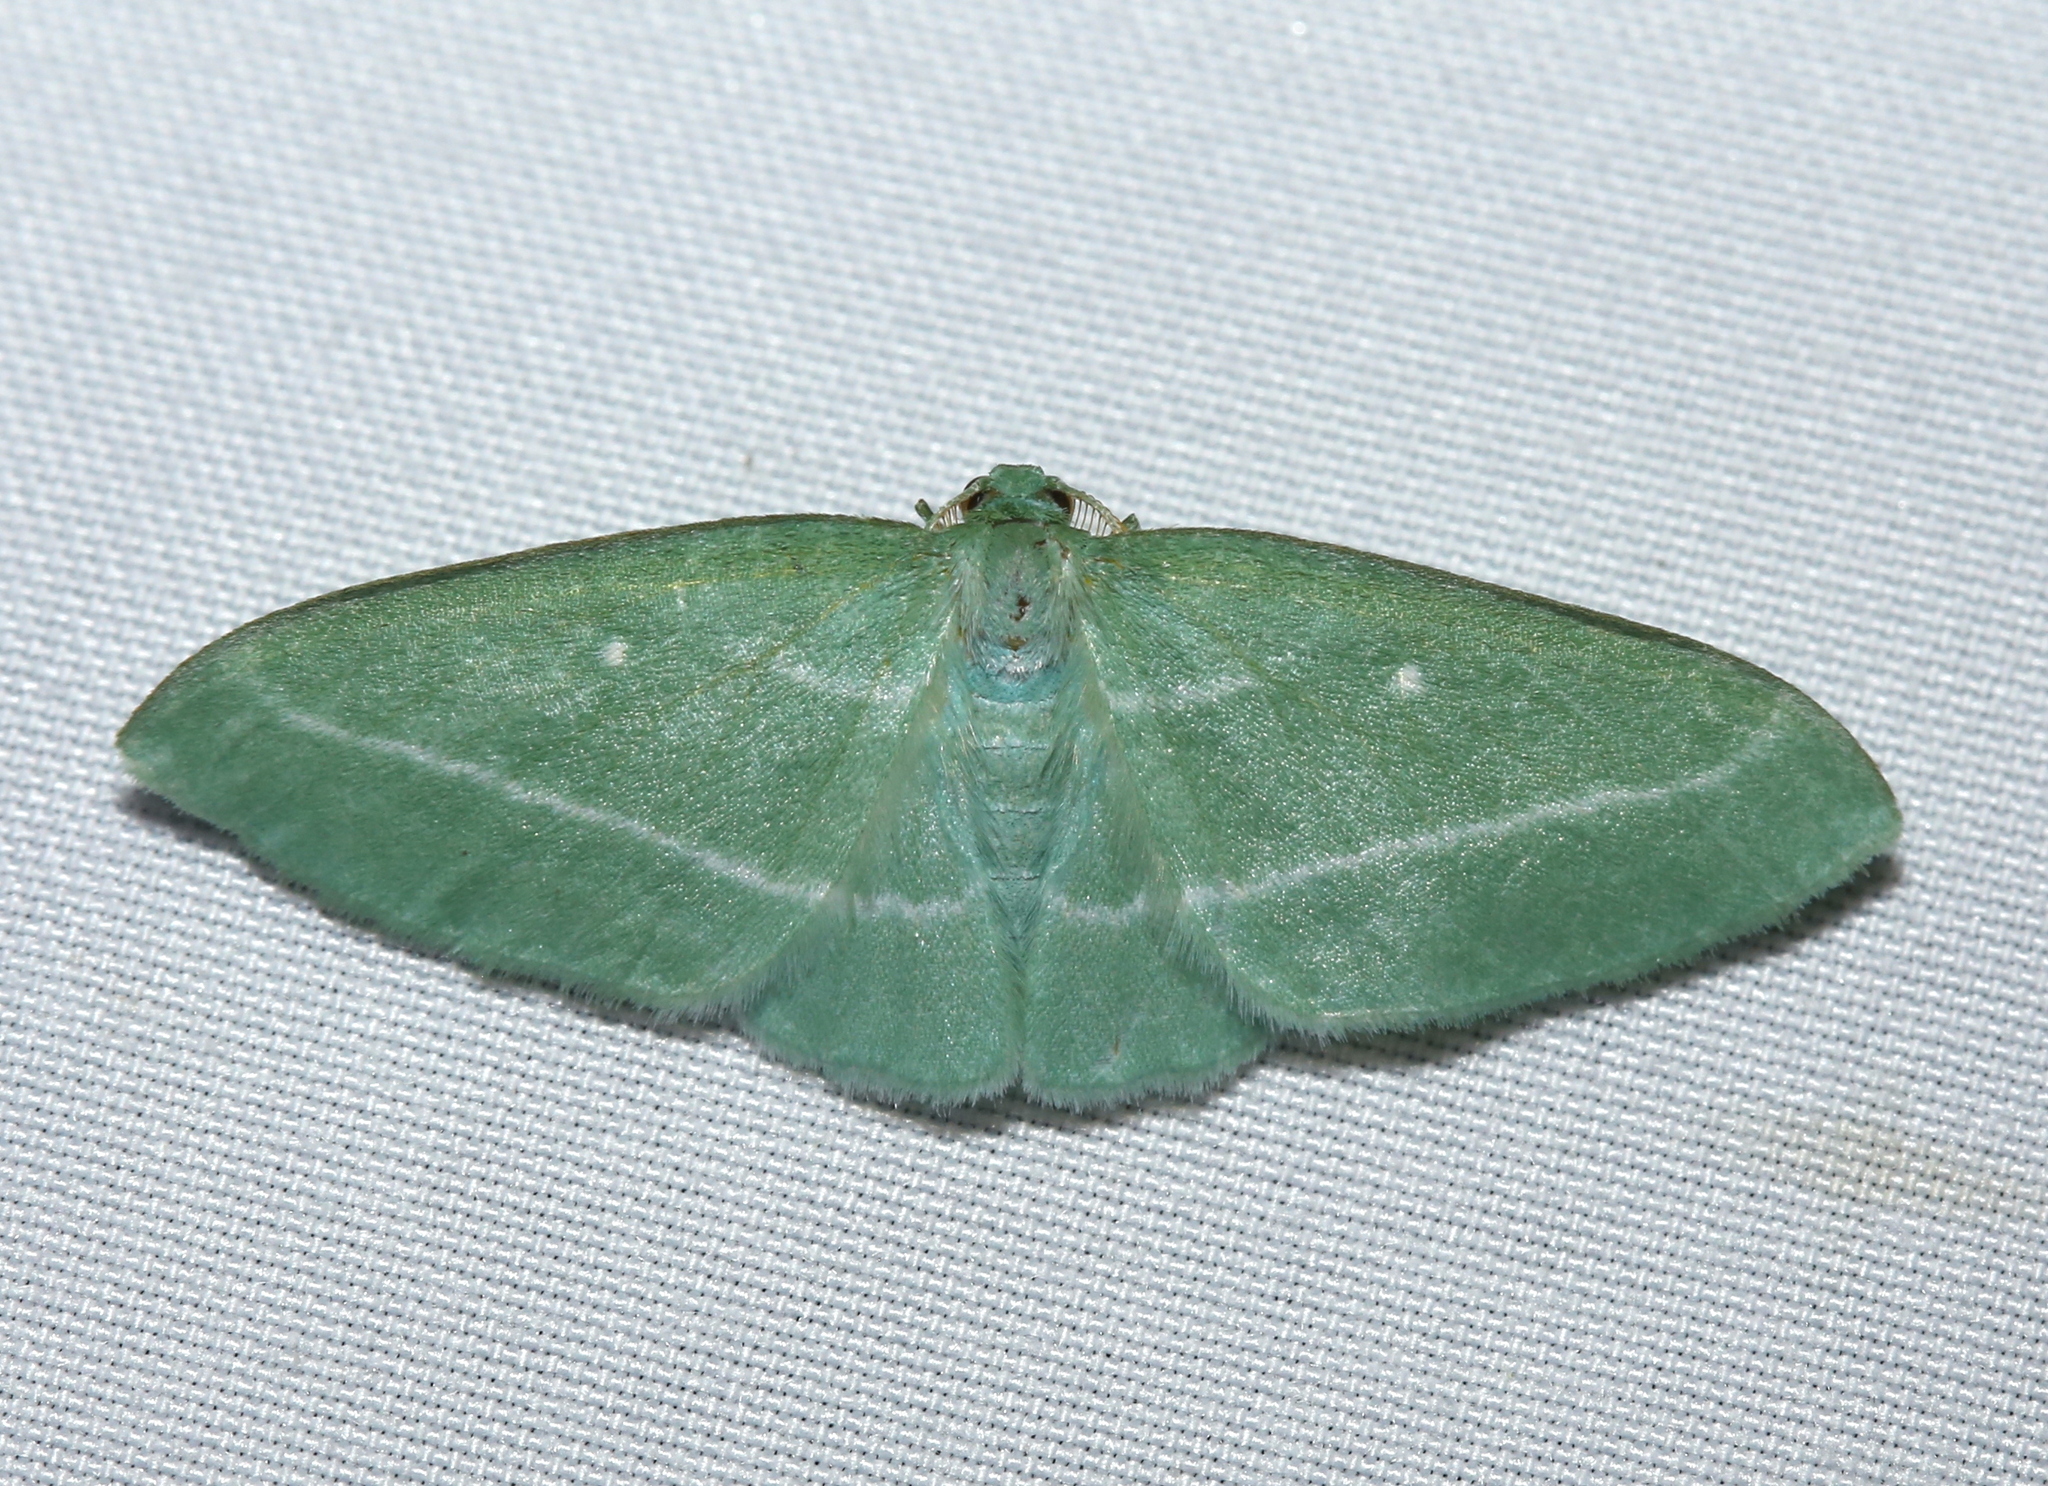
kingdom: Animalia
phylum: Arthropoda
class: Insecta
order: Lepidoptera
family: Geometridae
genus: Dyspteris
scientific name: Dyspteris abortivaria
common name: Bad-wing
